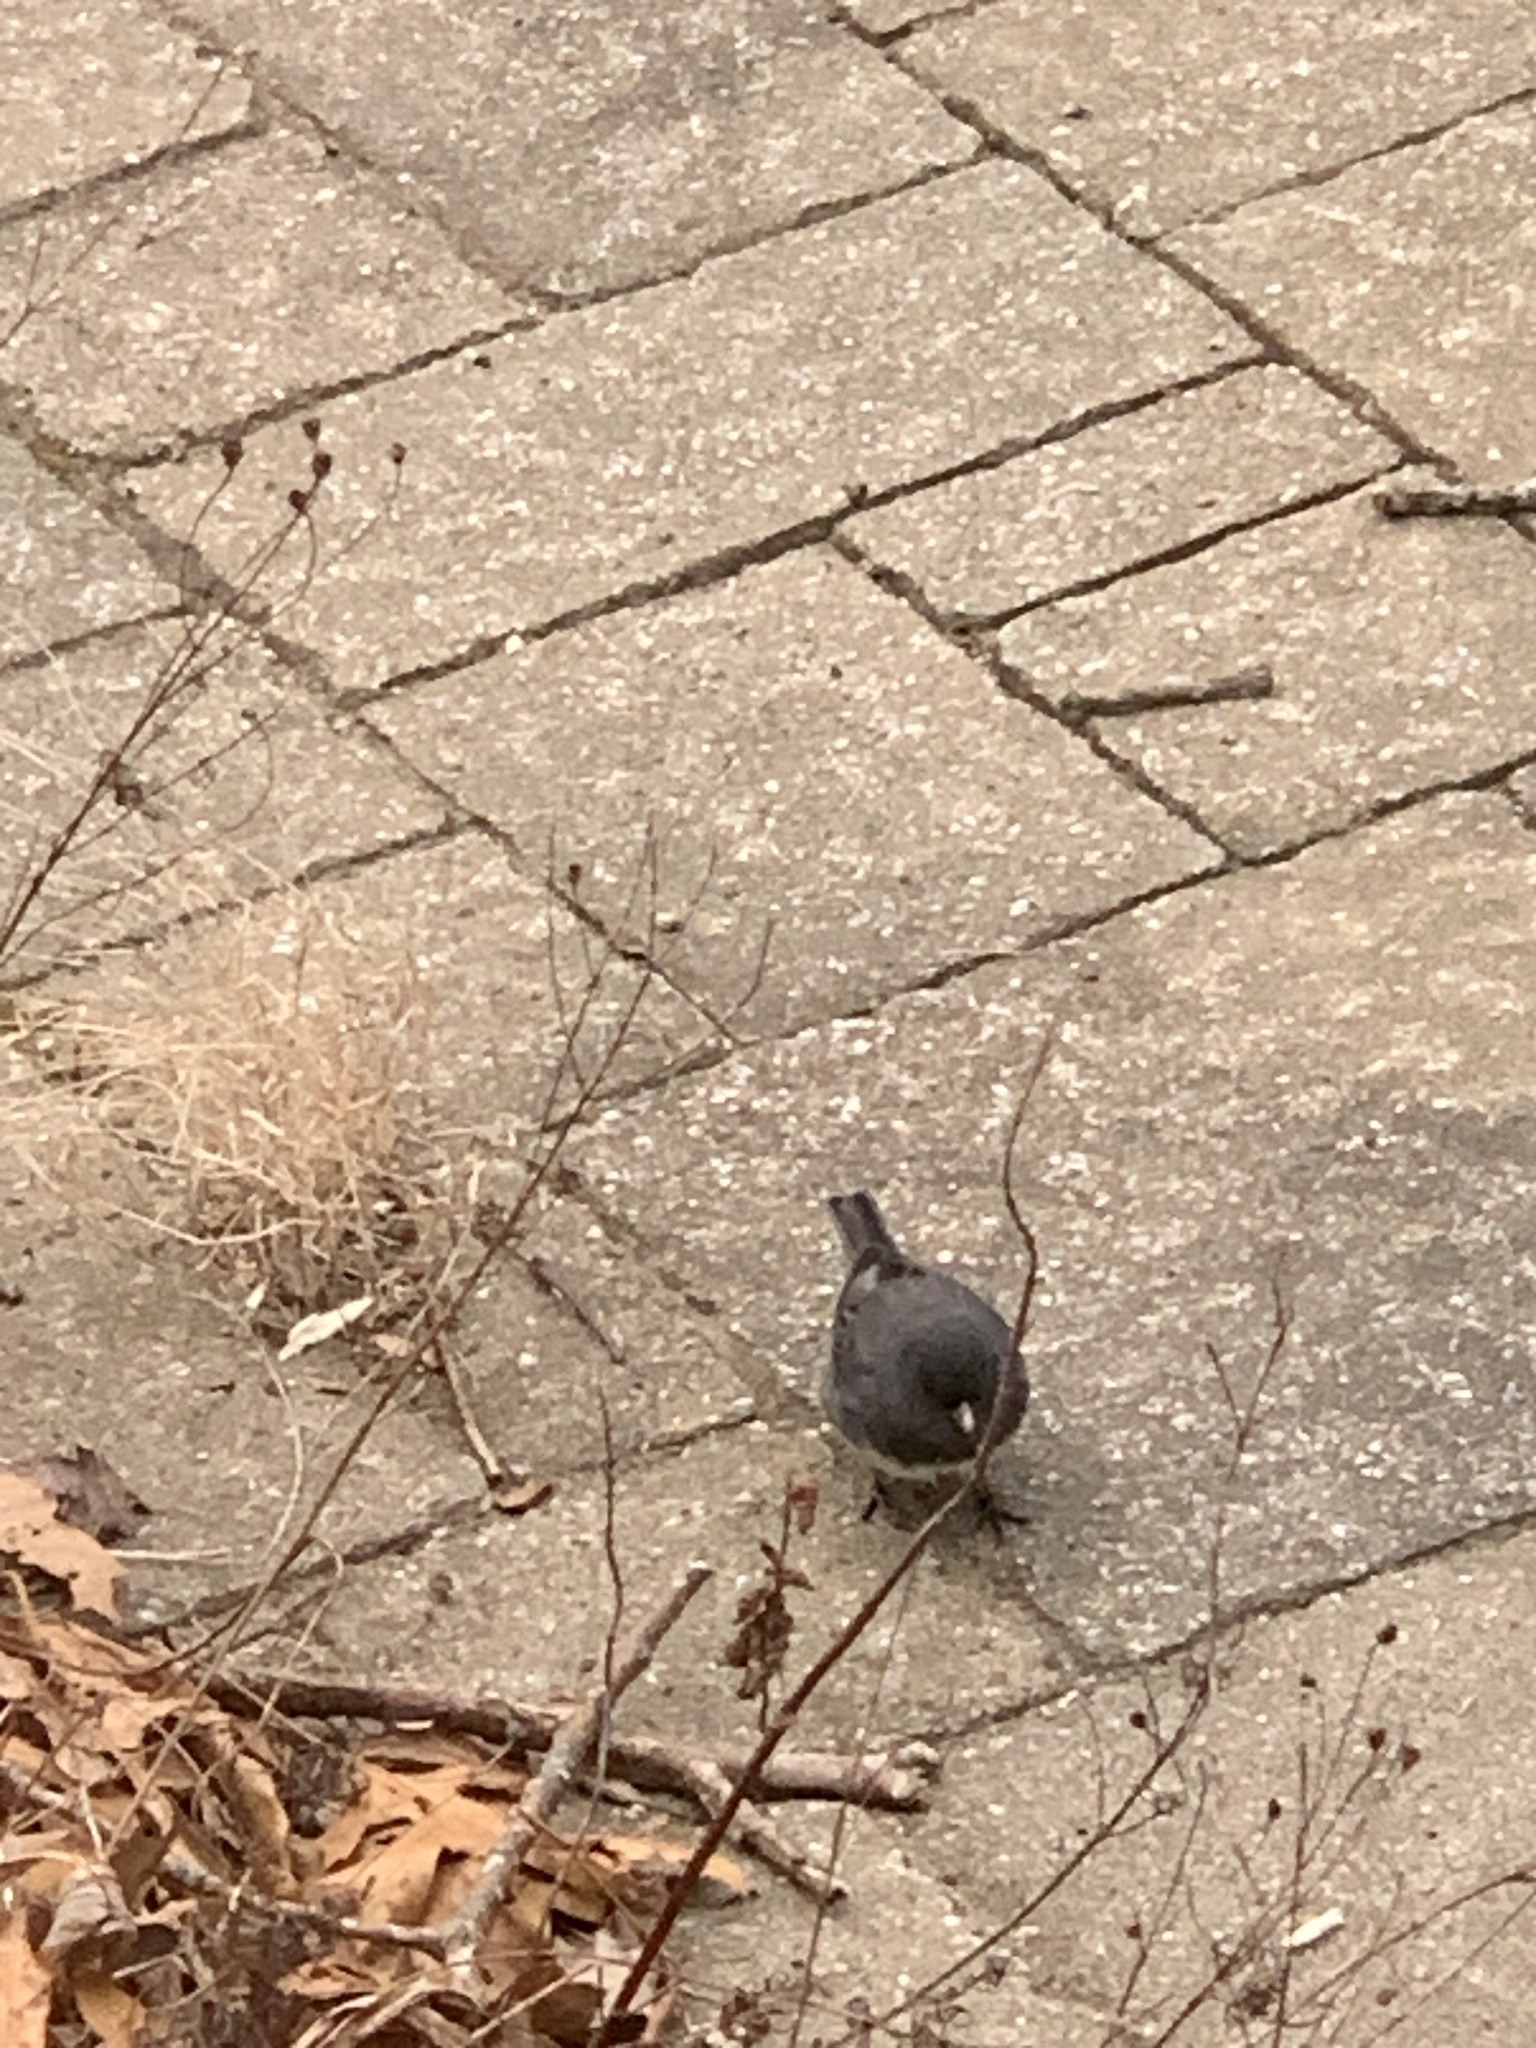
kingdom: Animalia
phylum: Chordata
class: Aves
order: Passeriformes
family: Passerellidae
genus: Junco
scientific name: Junco hyemalis
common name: Dark-eyed junco
